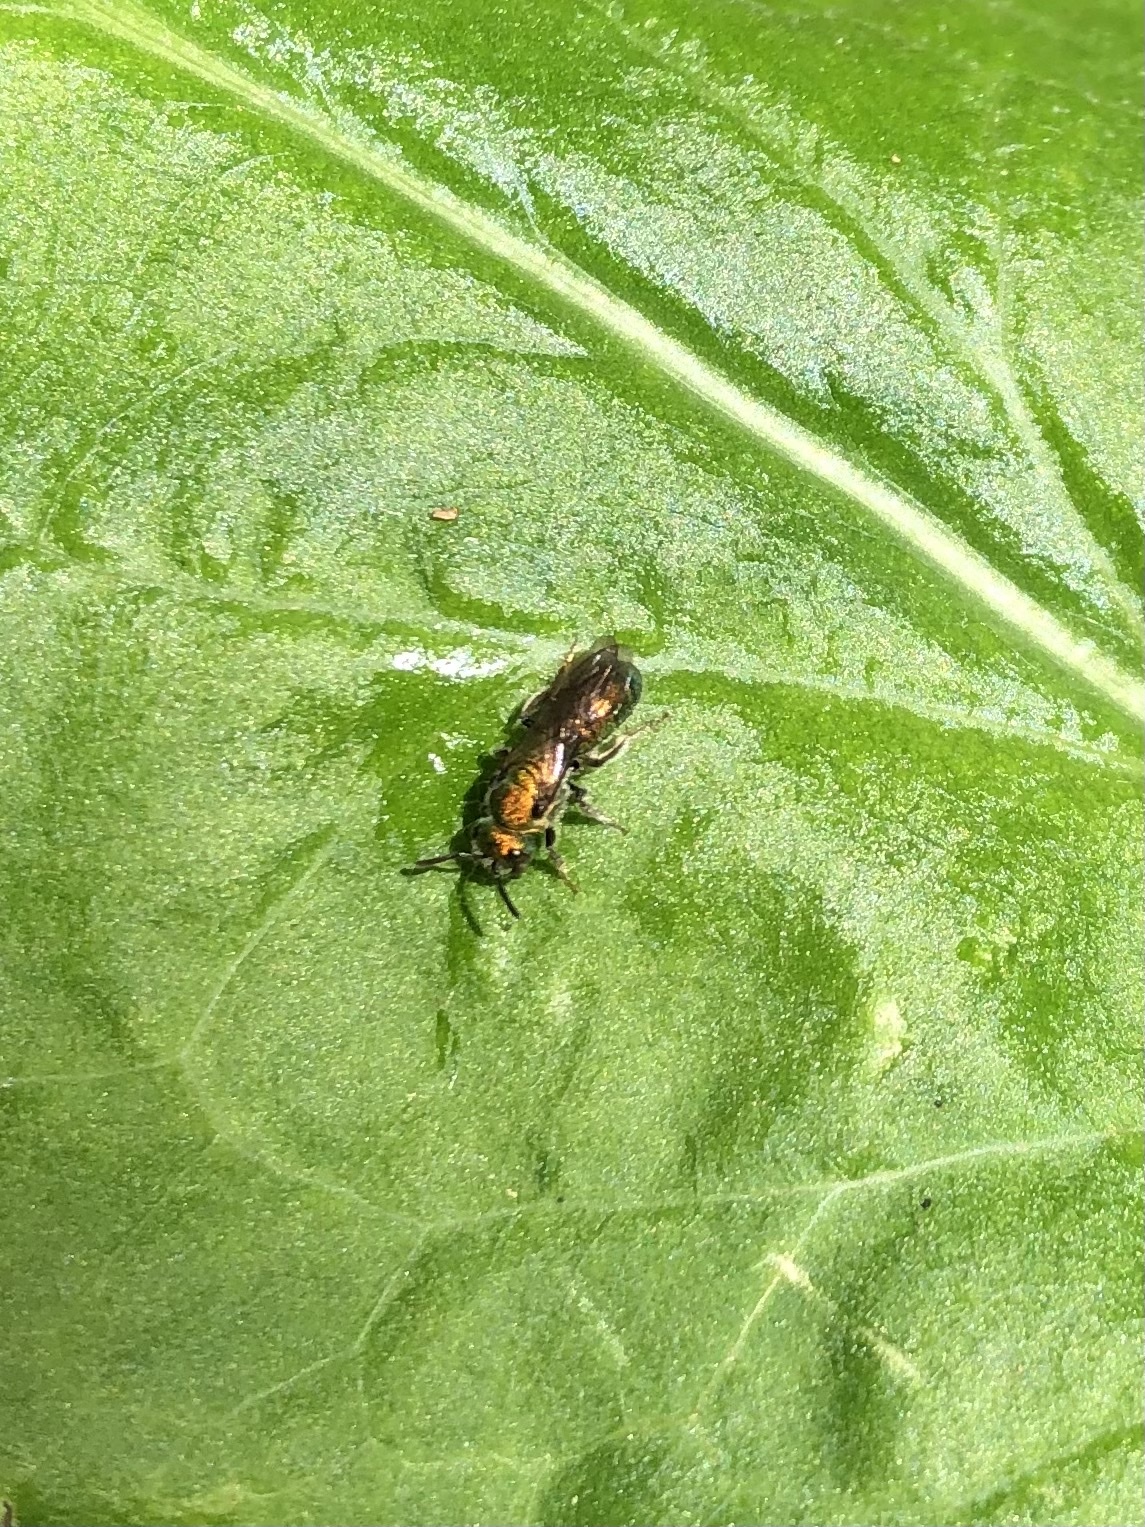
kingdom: Animalia
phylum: Arthropoda
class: Insecta
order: Hymenoptera
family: Halictidae
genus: Augochlora
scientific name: Augochlora pura
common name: Pure green sweat bee
